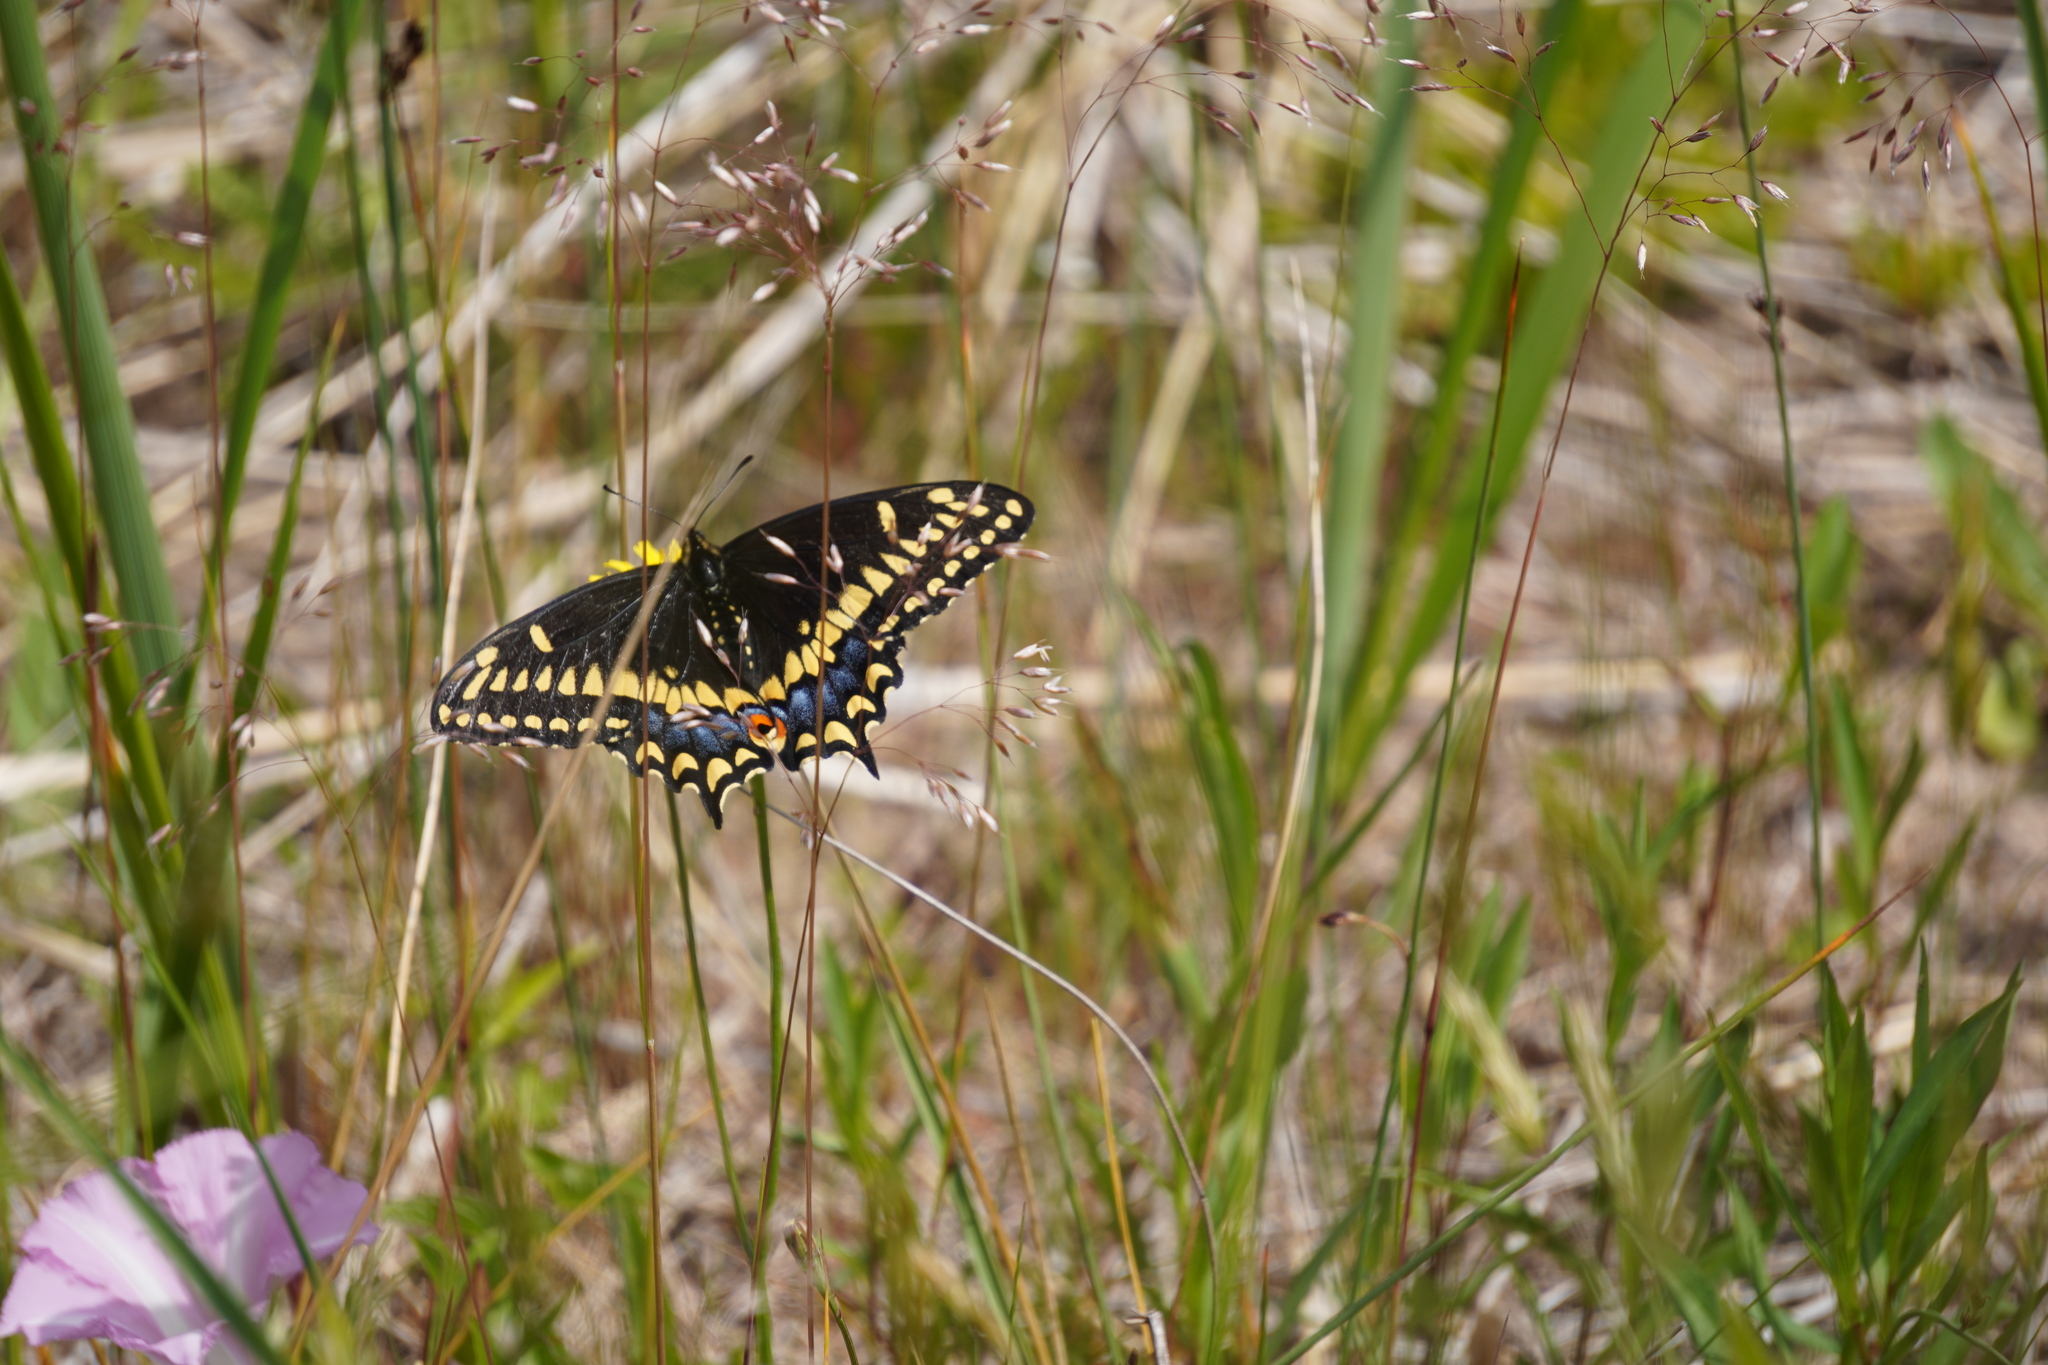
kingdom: Animalia
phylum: Arthropoda
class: Insecta
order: Lepidoptera
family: Papilionidae
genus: Papilio
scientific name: Papilio brevicauda
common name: Short tailed swallowtail
